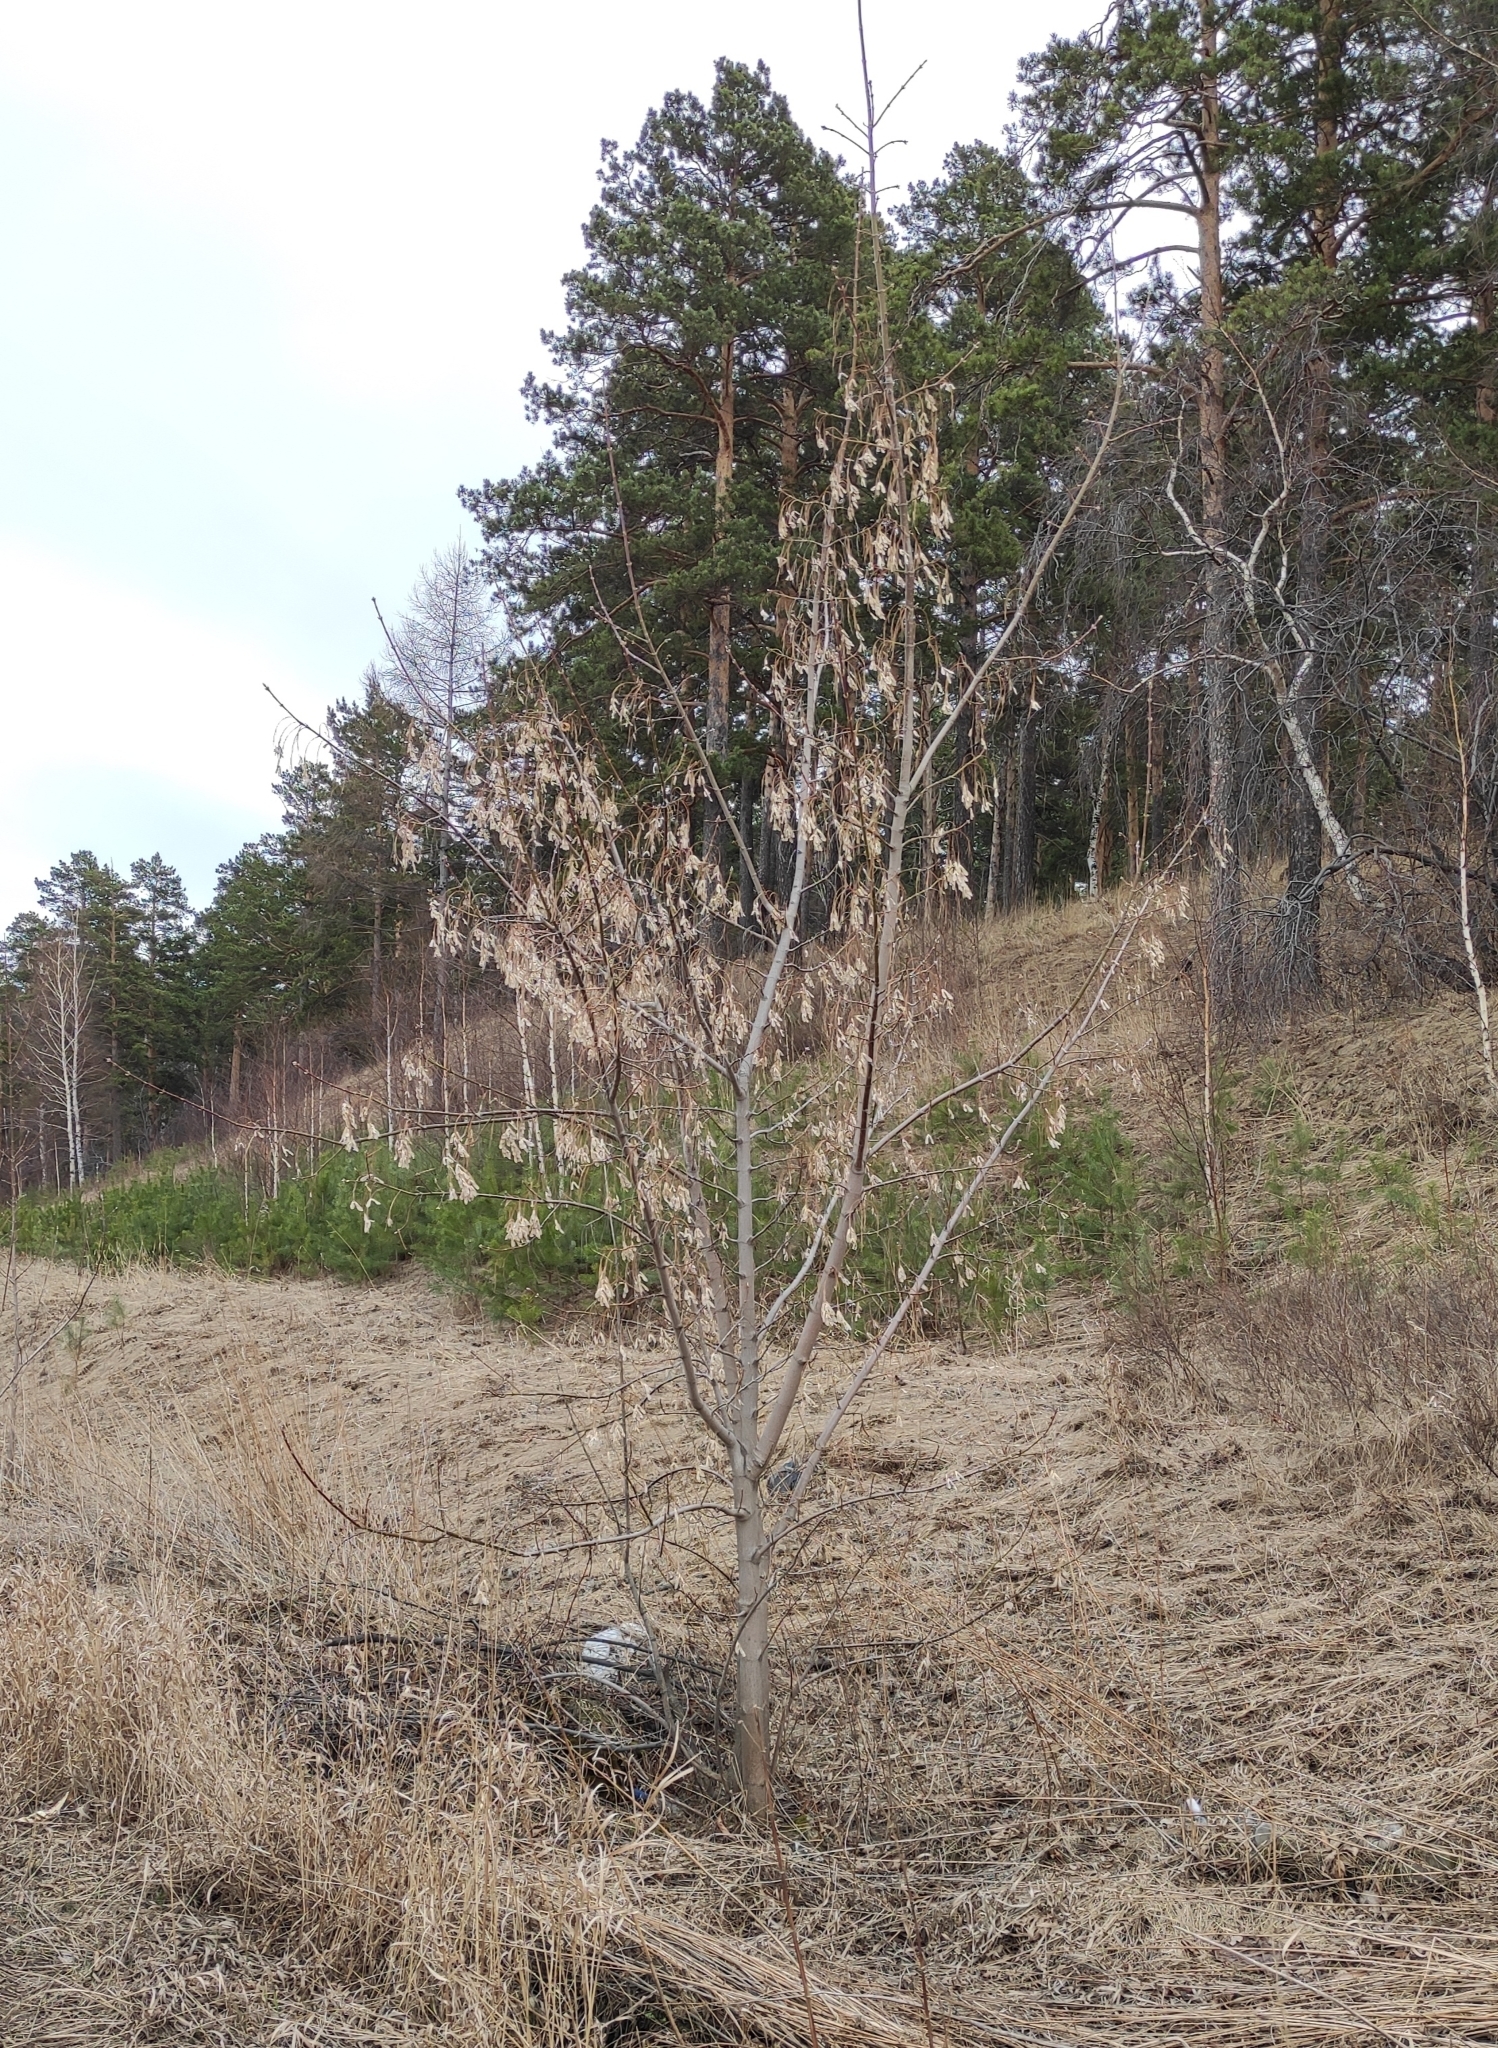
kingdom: Plantae
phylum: Tracheophyta
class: Magnoliopsida
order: Sapindales
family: Sapindaceae
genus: Acer
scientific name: Acer negundo
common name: Ashleaf maple
